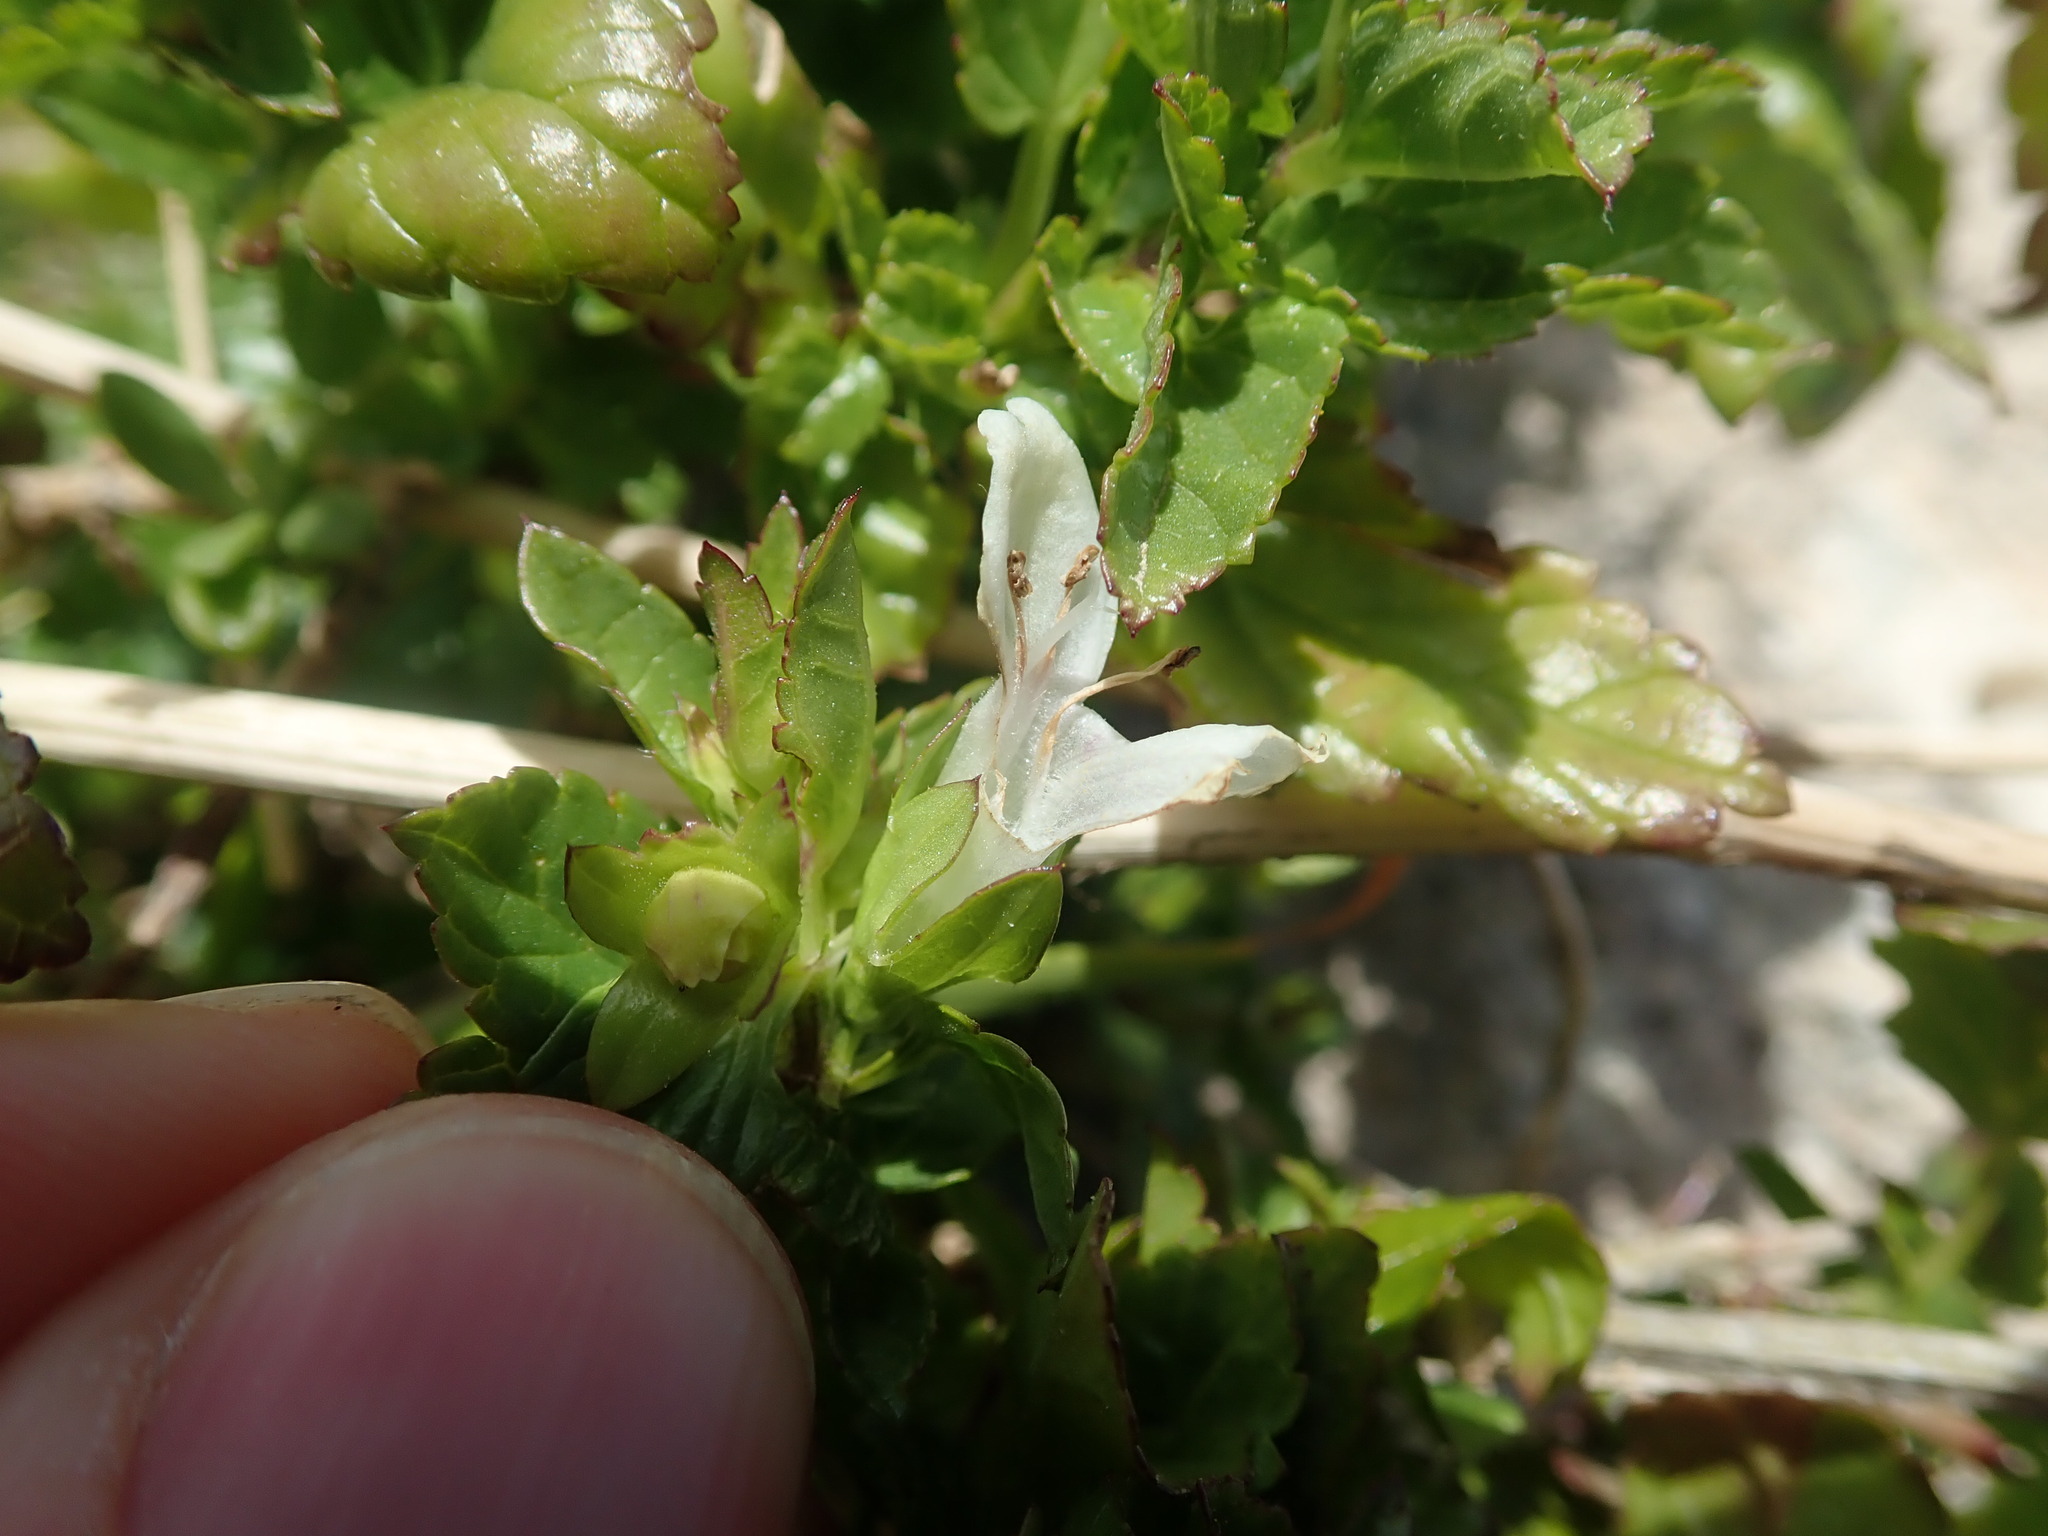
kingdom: Plantae
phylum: Tracheophyta
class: Magnoliopsida
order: Lamiales
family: Lamiaceae
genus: Prasium
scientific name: Prasium majus
